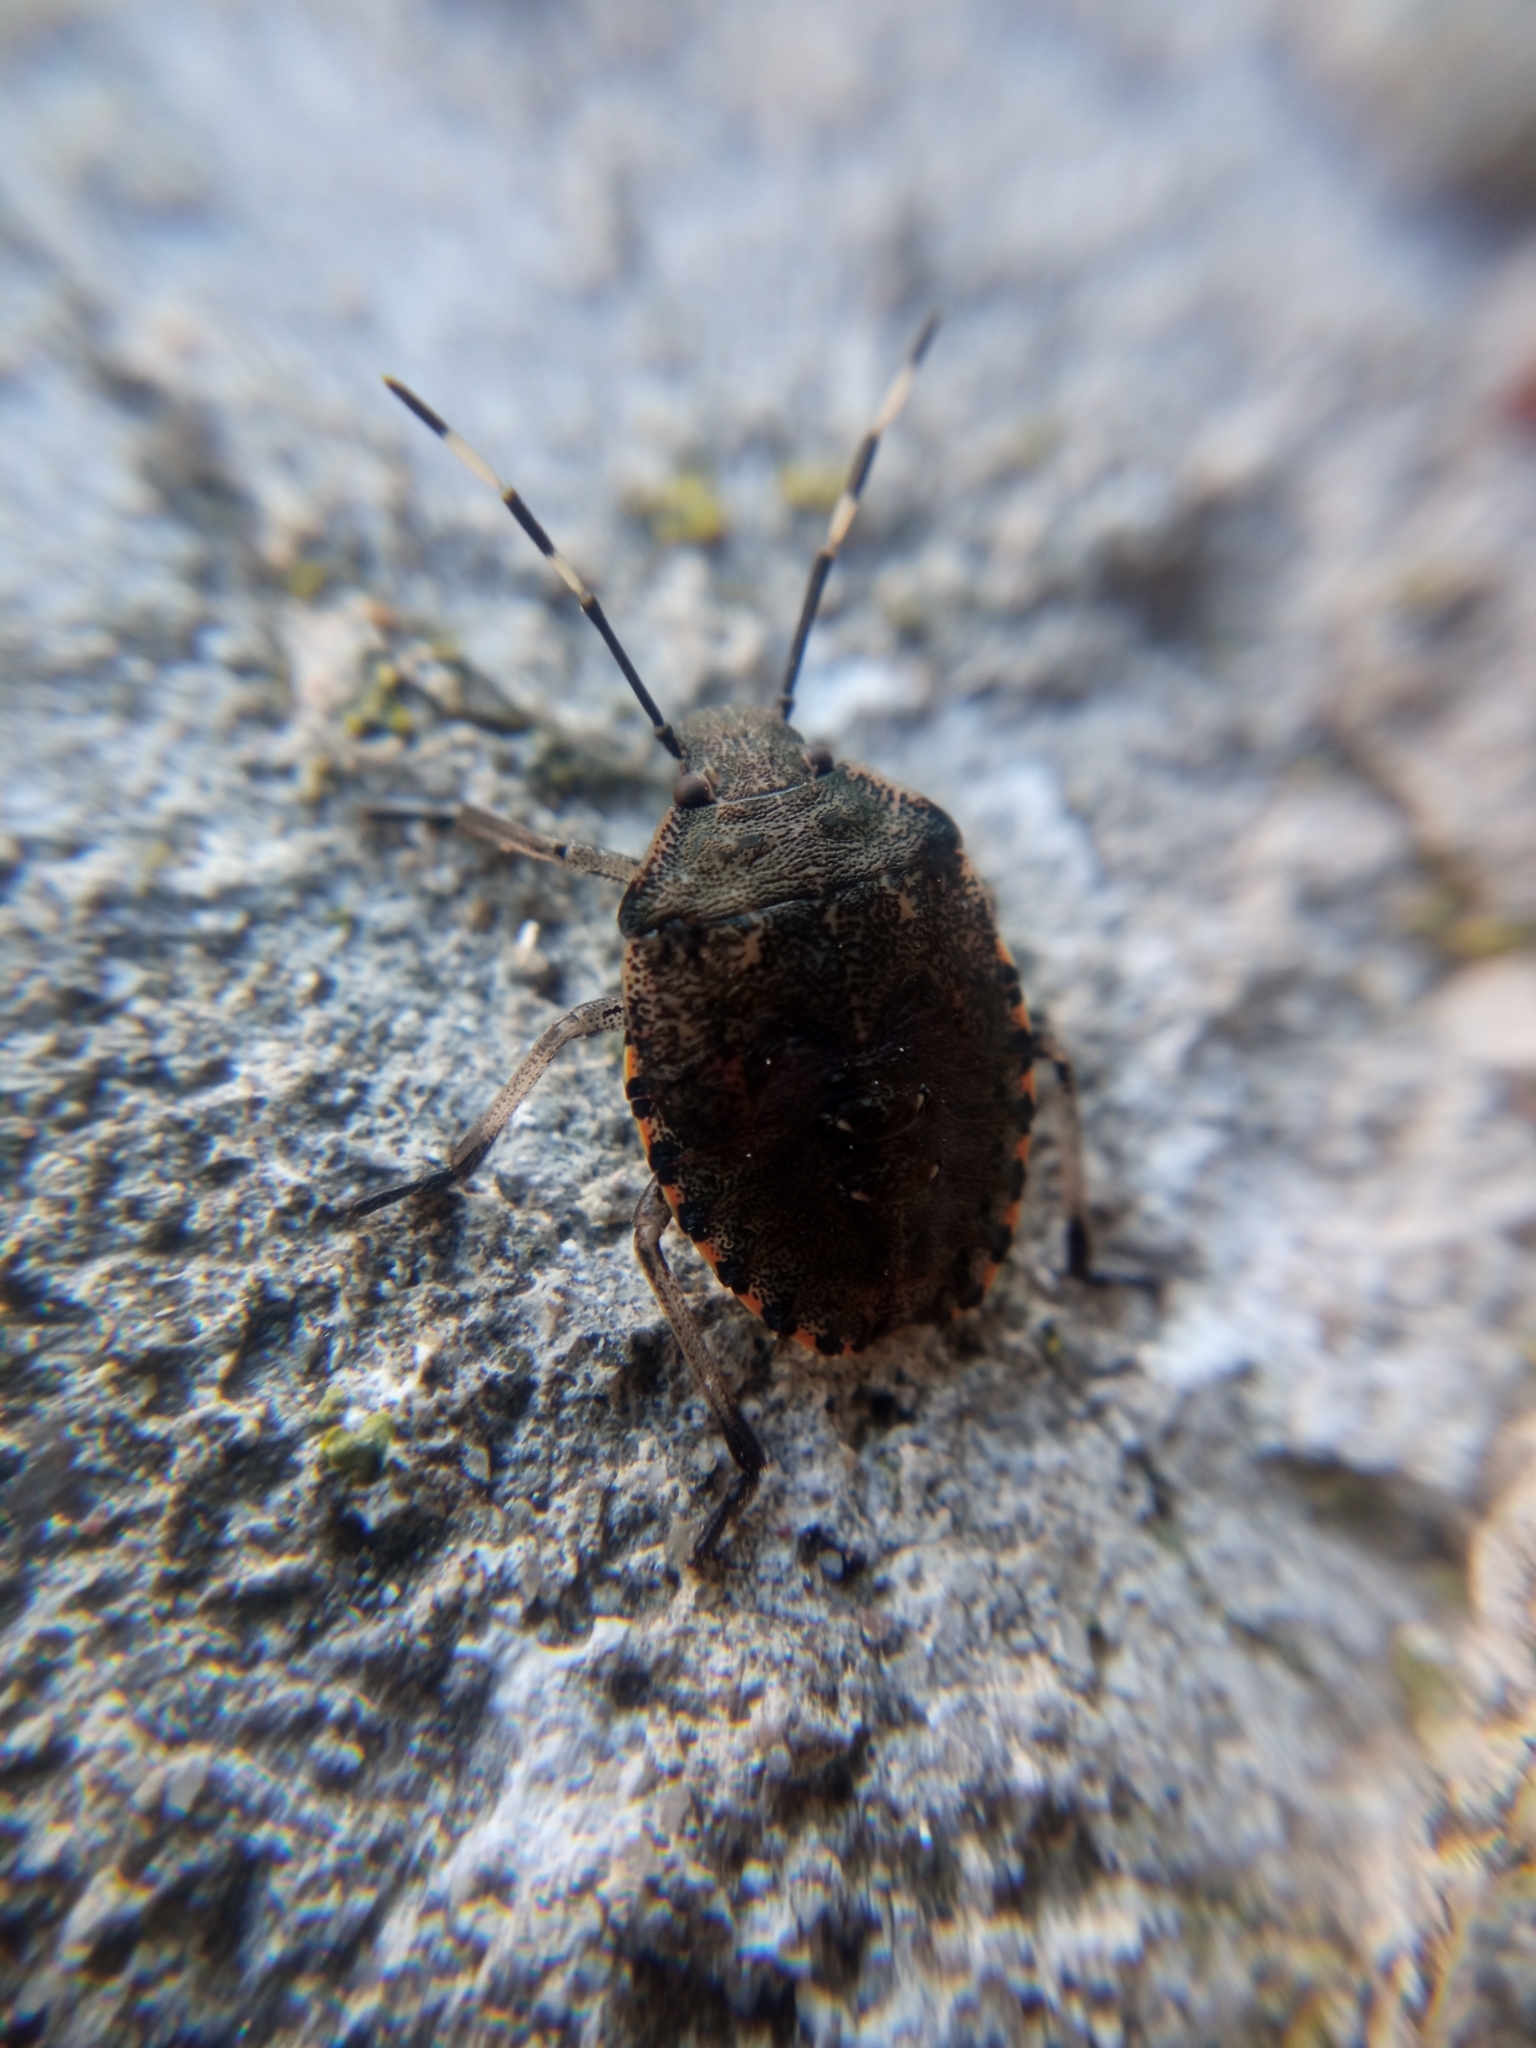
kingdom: Animalia
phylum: Arthropoda
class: Insecta
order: Hemiptera
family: Pentatomidae
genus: Rhaphigaster
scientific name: Rhaphigaster nebulosa
